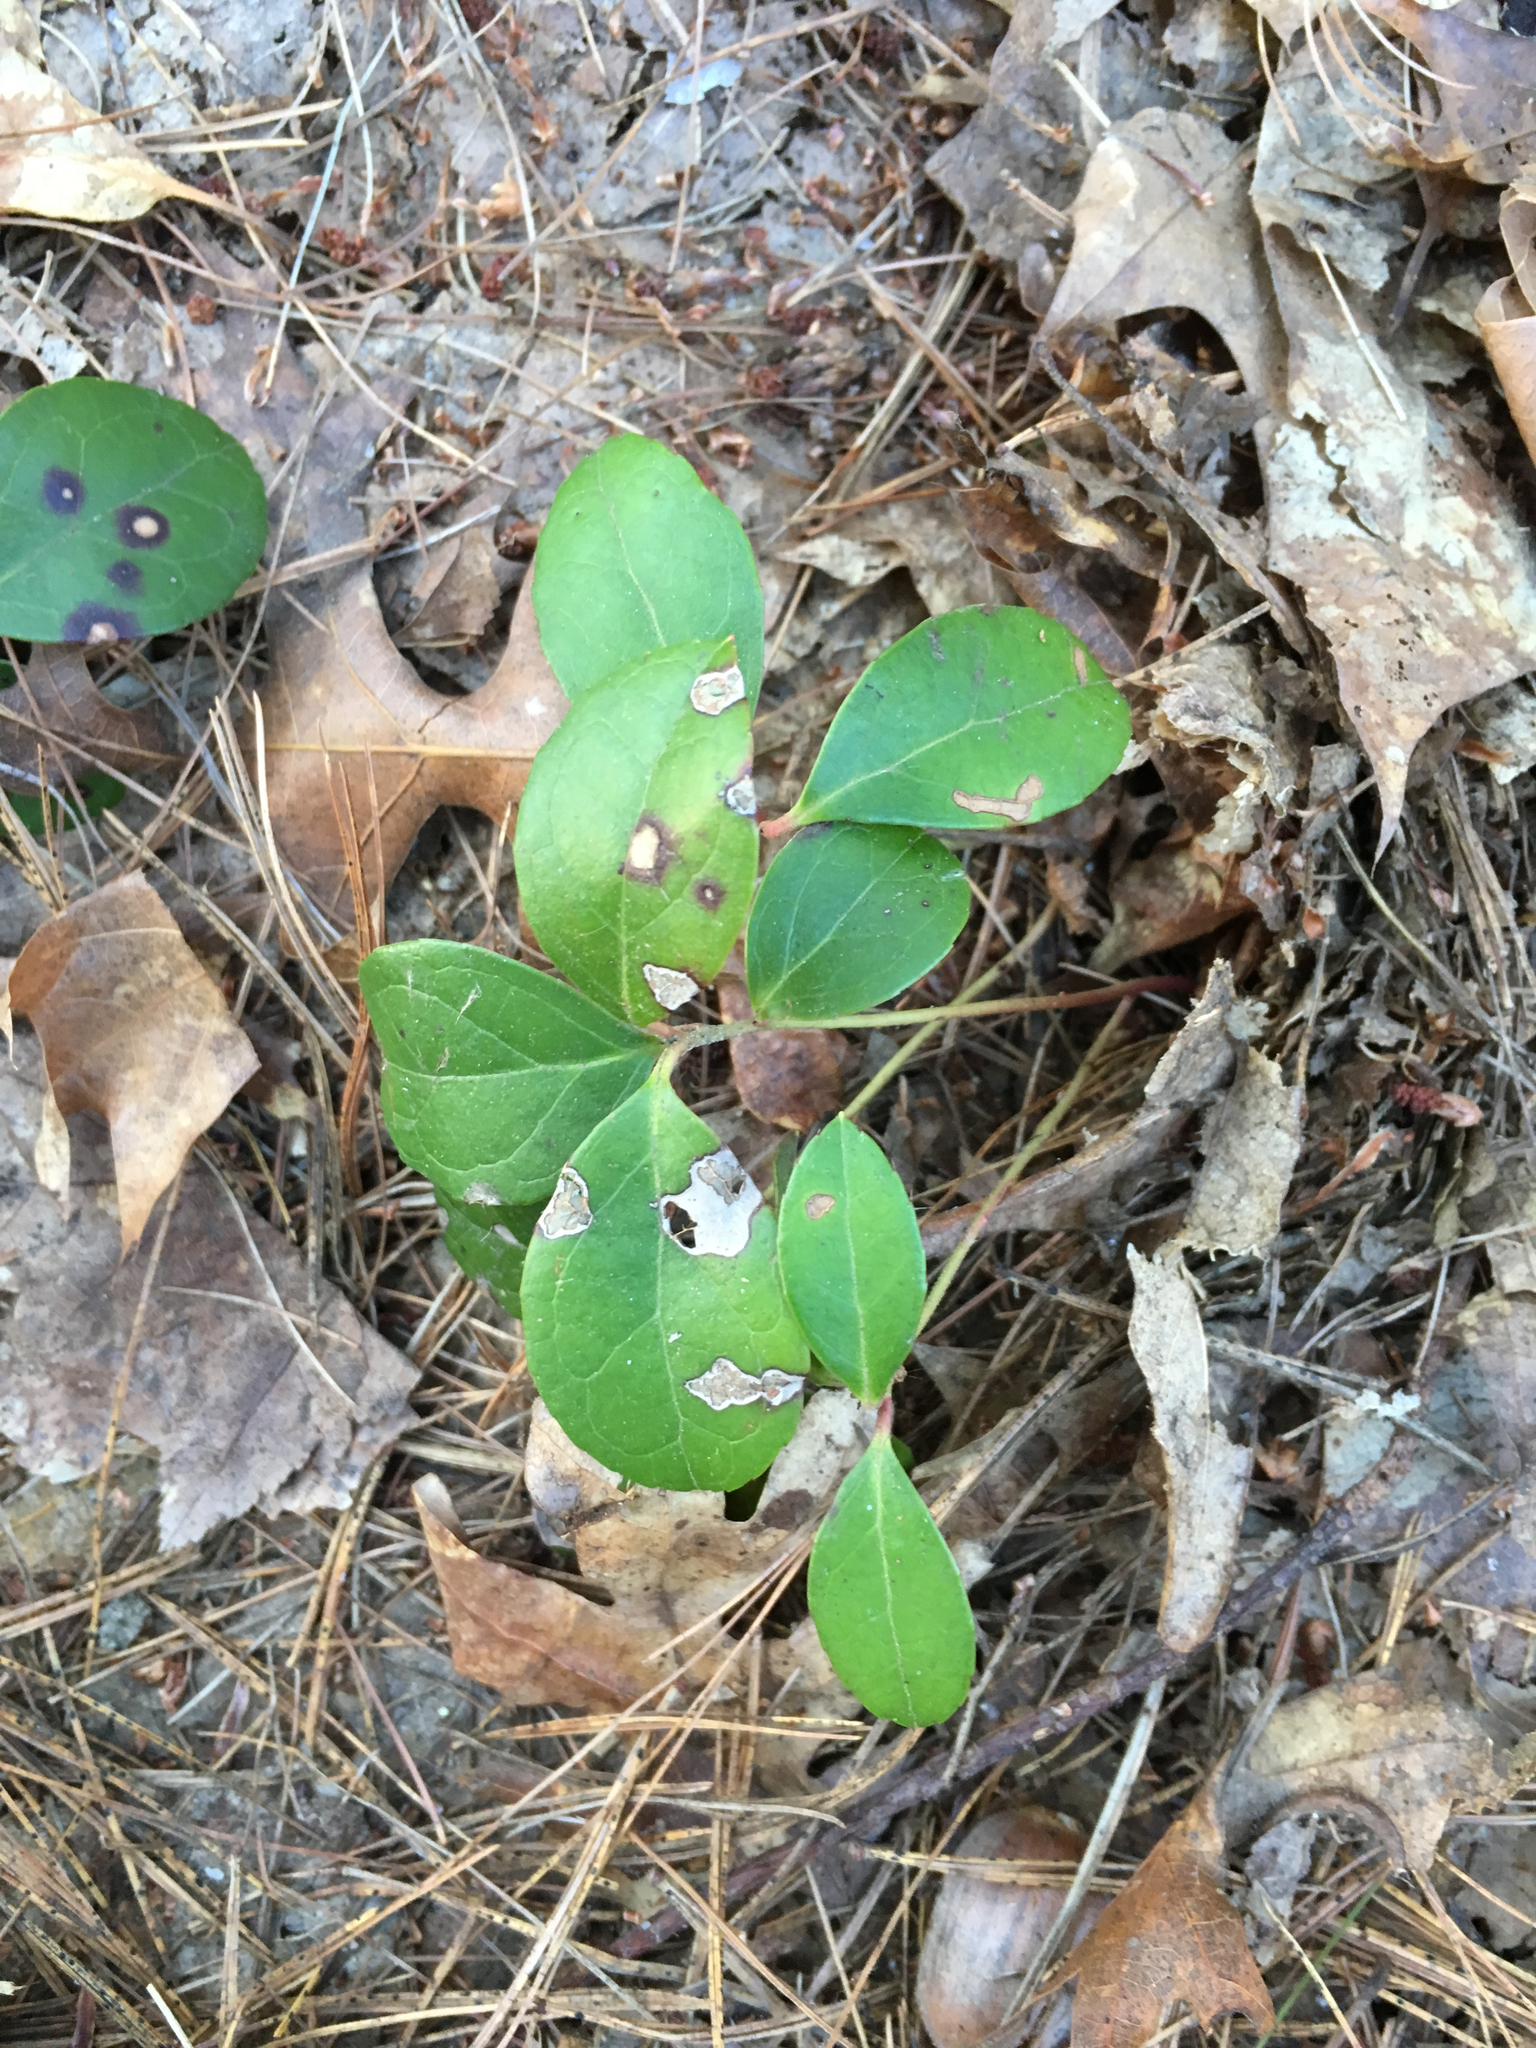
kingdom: Plantae
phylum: Tracheophyta
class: Magnoliopsida
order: Ericales
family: Ericaceae
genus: Gaultheria
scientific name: Gaultheria procumbens
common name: Checkerberry
